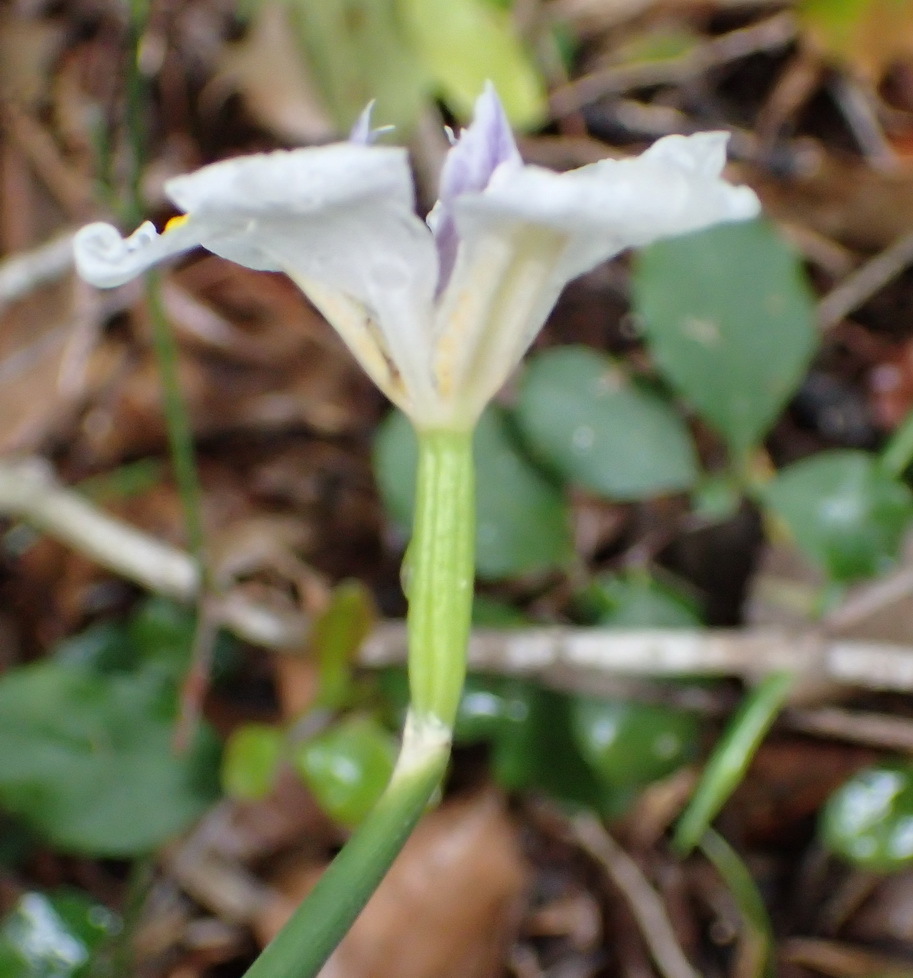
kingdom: Plantae
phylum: Tracheophyta
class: Liliopsida
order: Asparagales
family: Iridaceae
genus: Dietes
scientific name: Dietes iridioides
